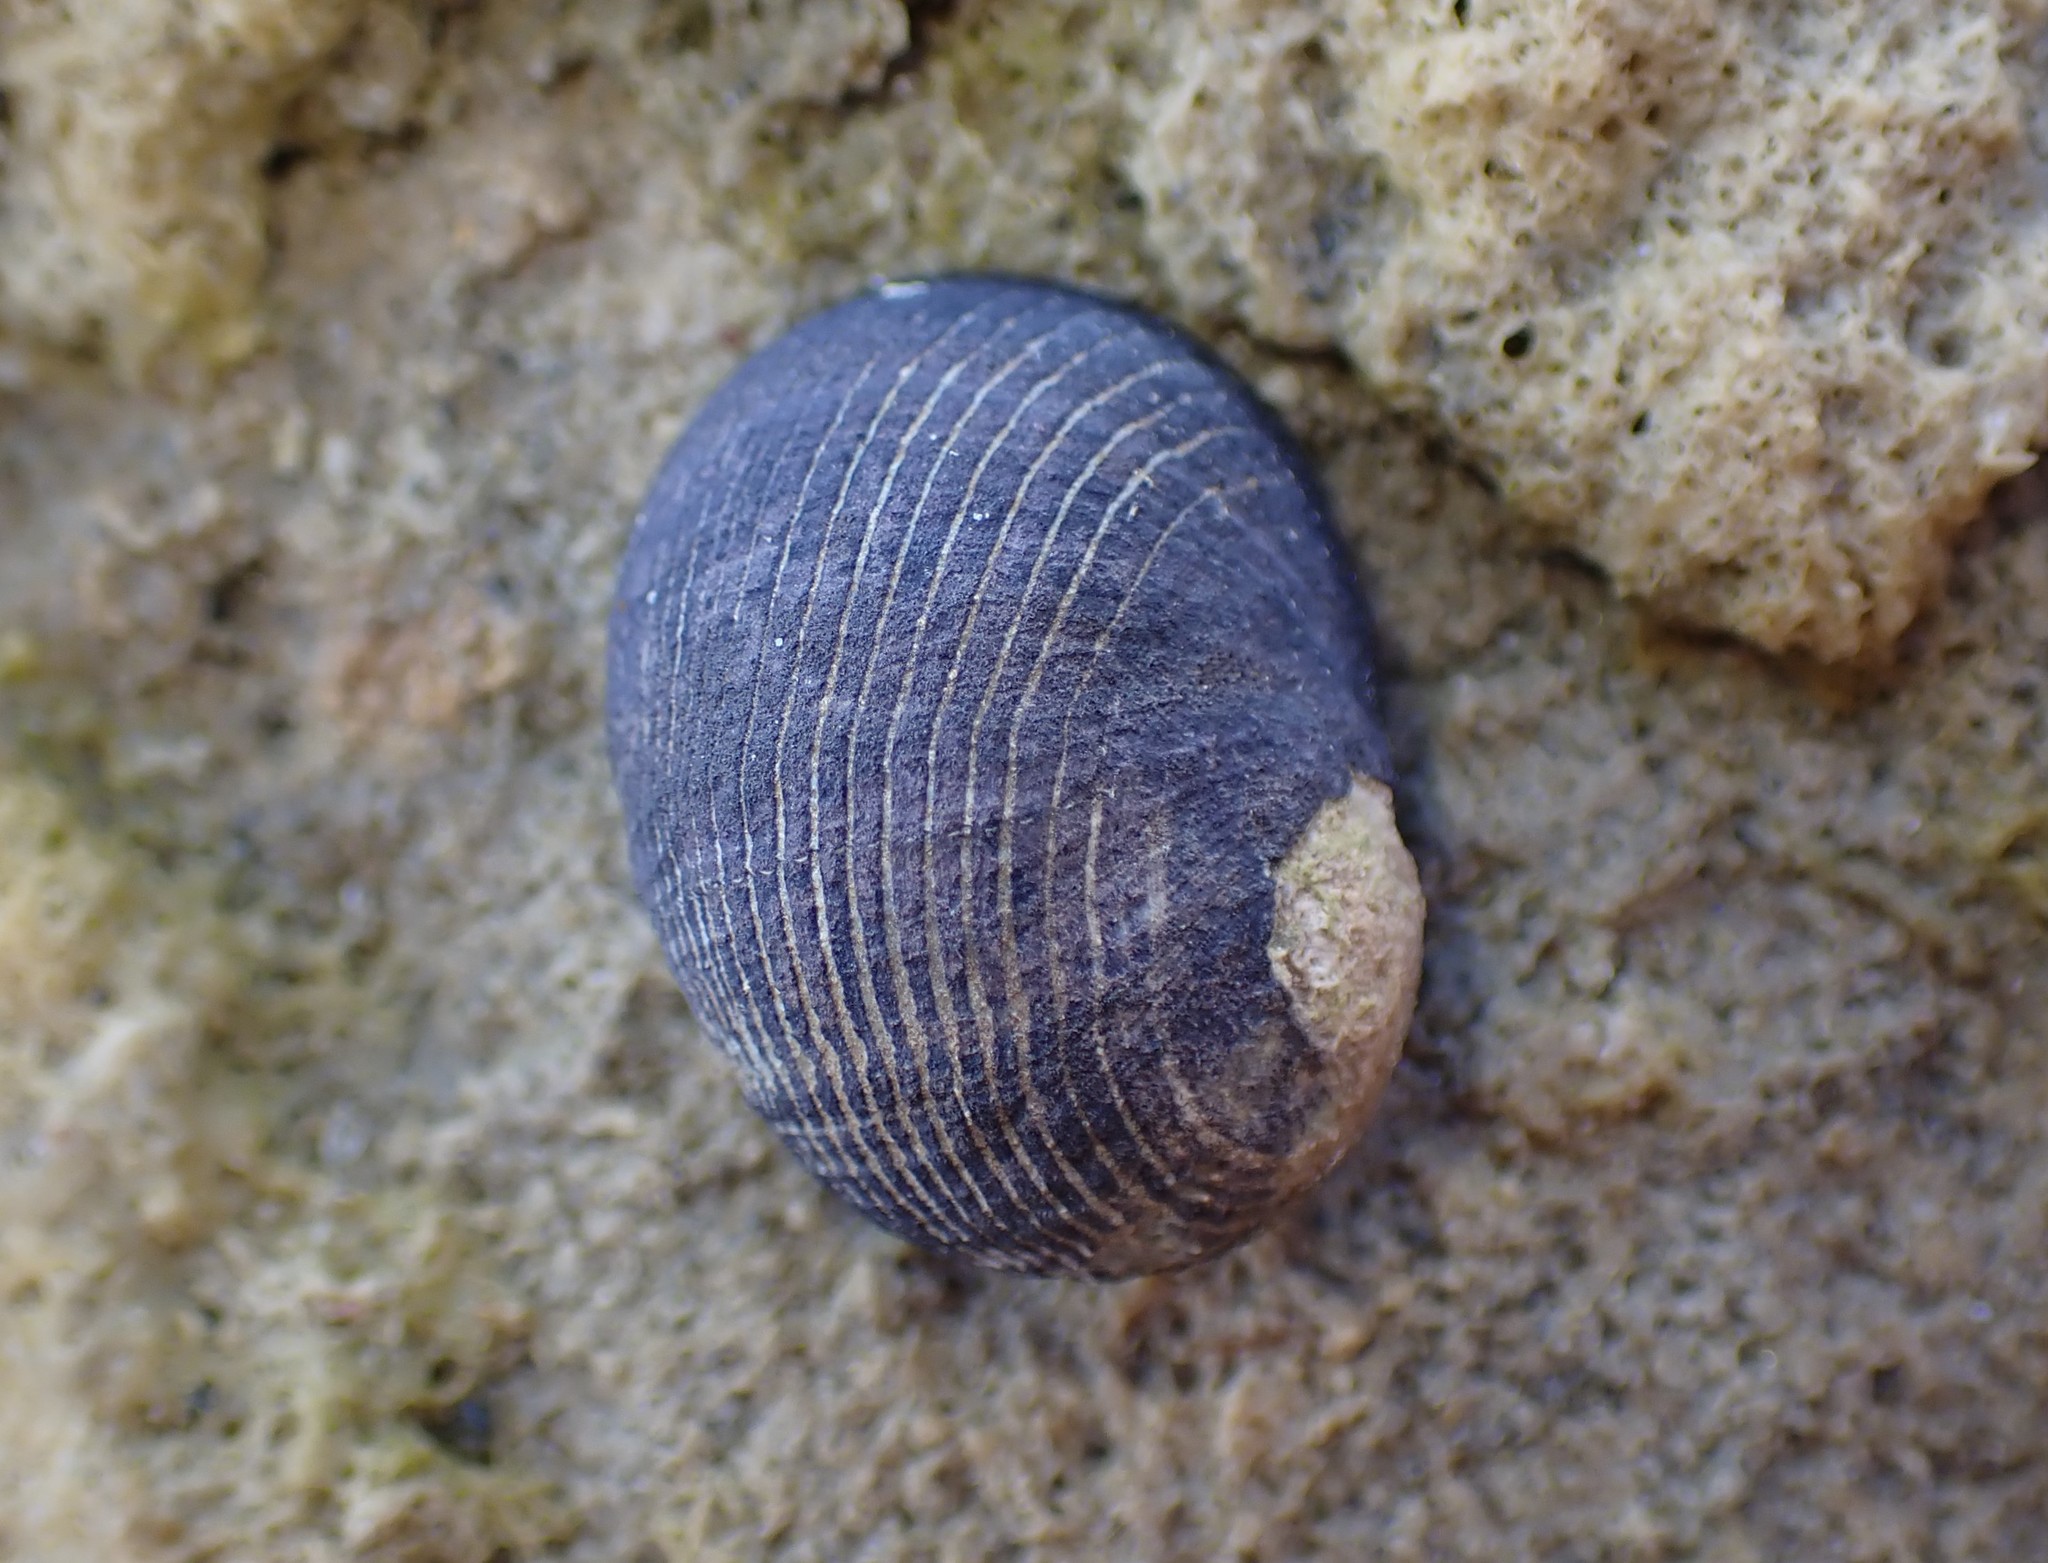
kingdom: Animalia
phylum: Mollusca
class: Gastropoda
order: Cycloneritida
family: Neritidae
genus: Nerita
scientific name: Nerita melanotragus
